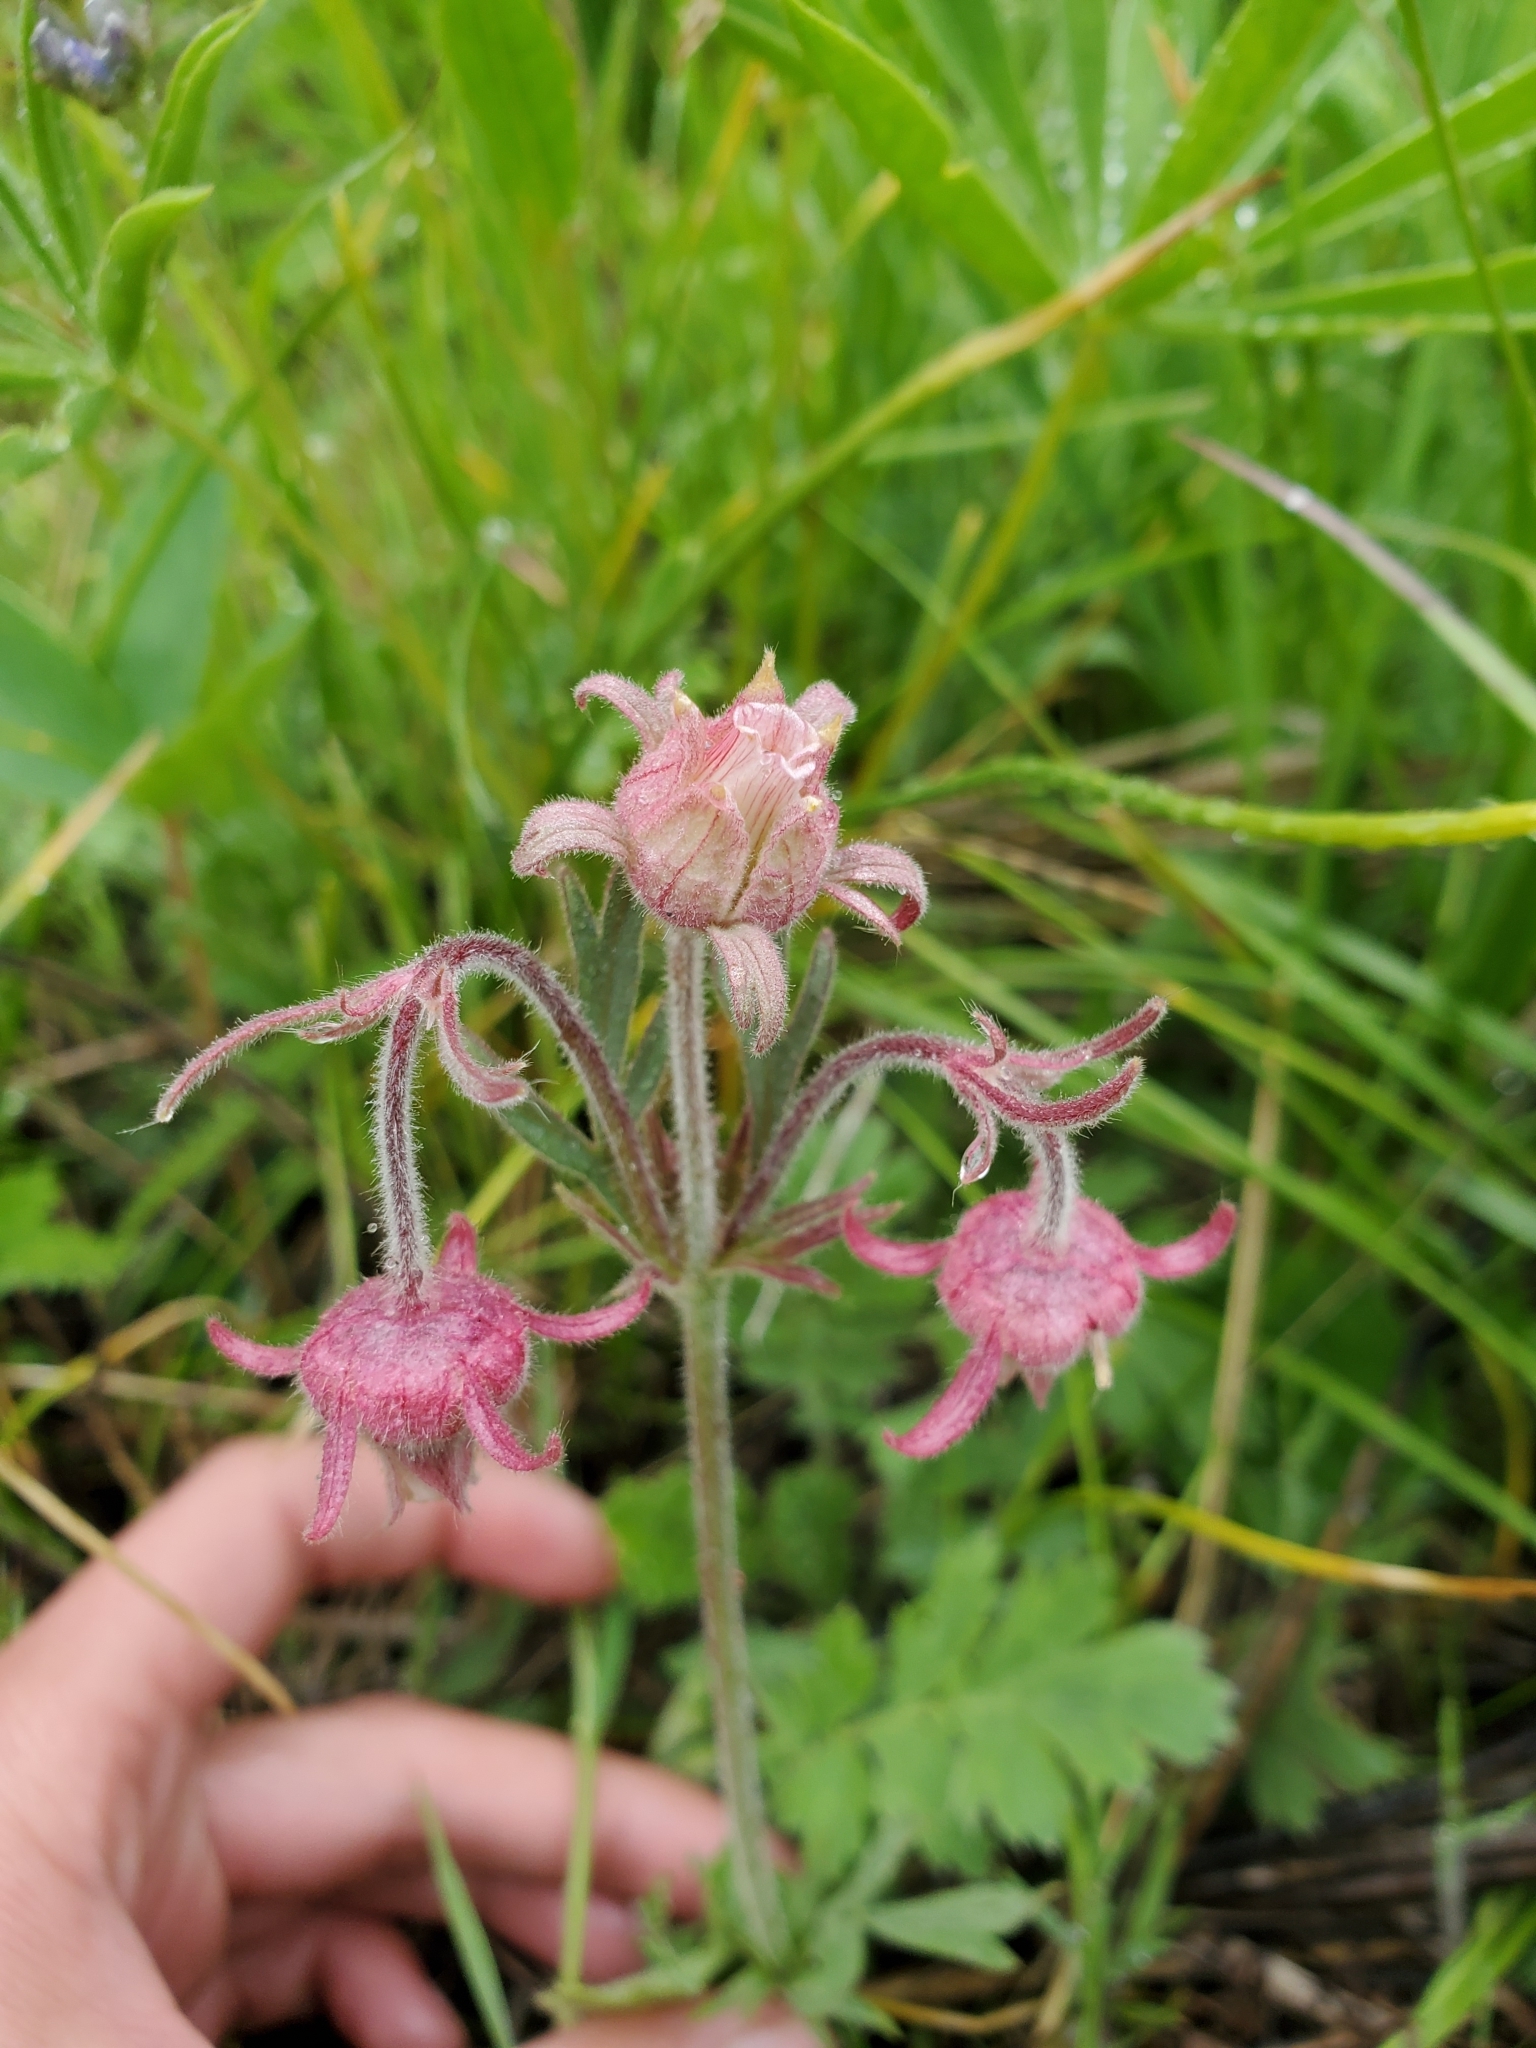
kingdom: Plantae
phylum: Tracheophyta
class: Magnoliopsida
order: Rosales
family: Rosaceae
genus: Geum
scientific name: Geum triflorum
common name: Old man's whiskers
